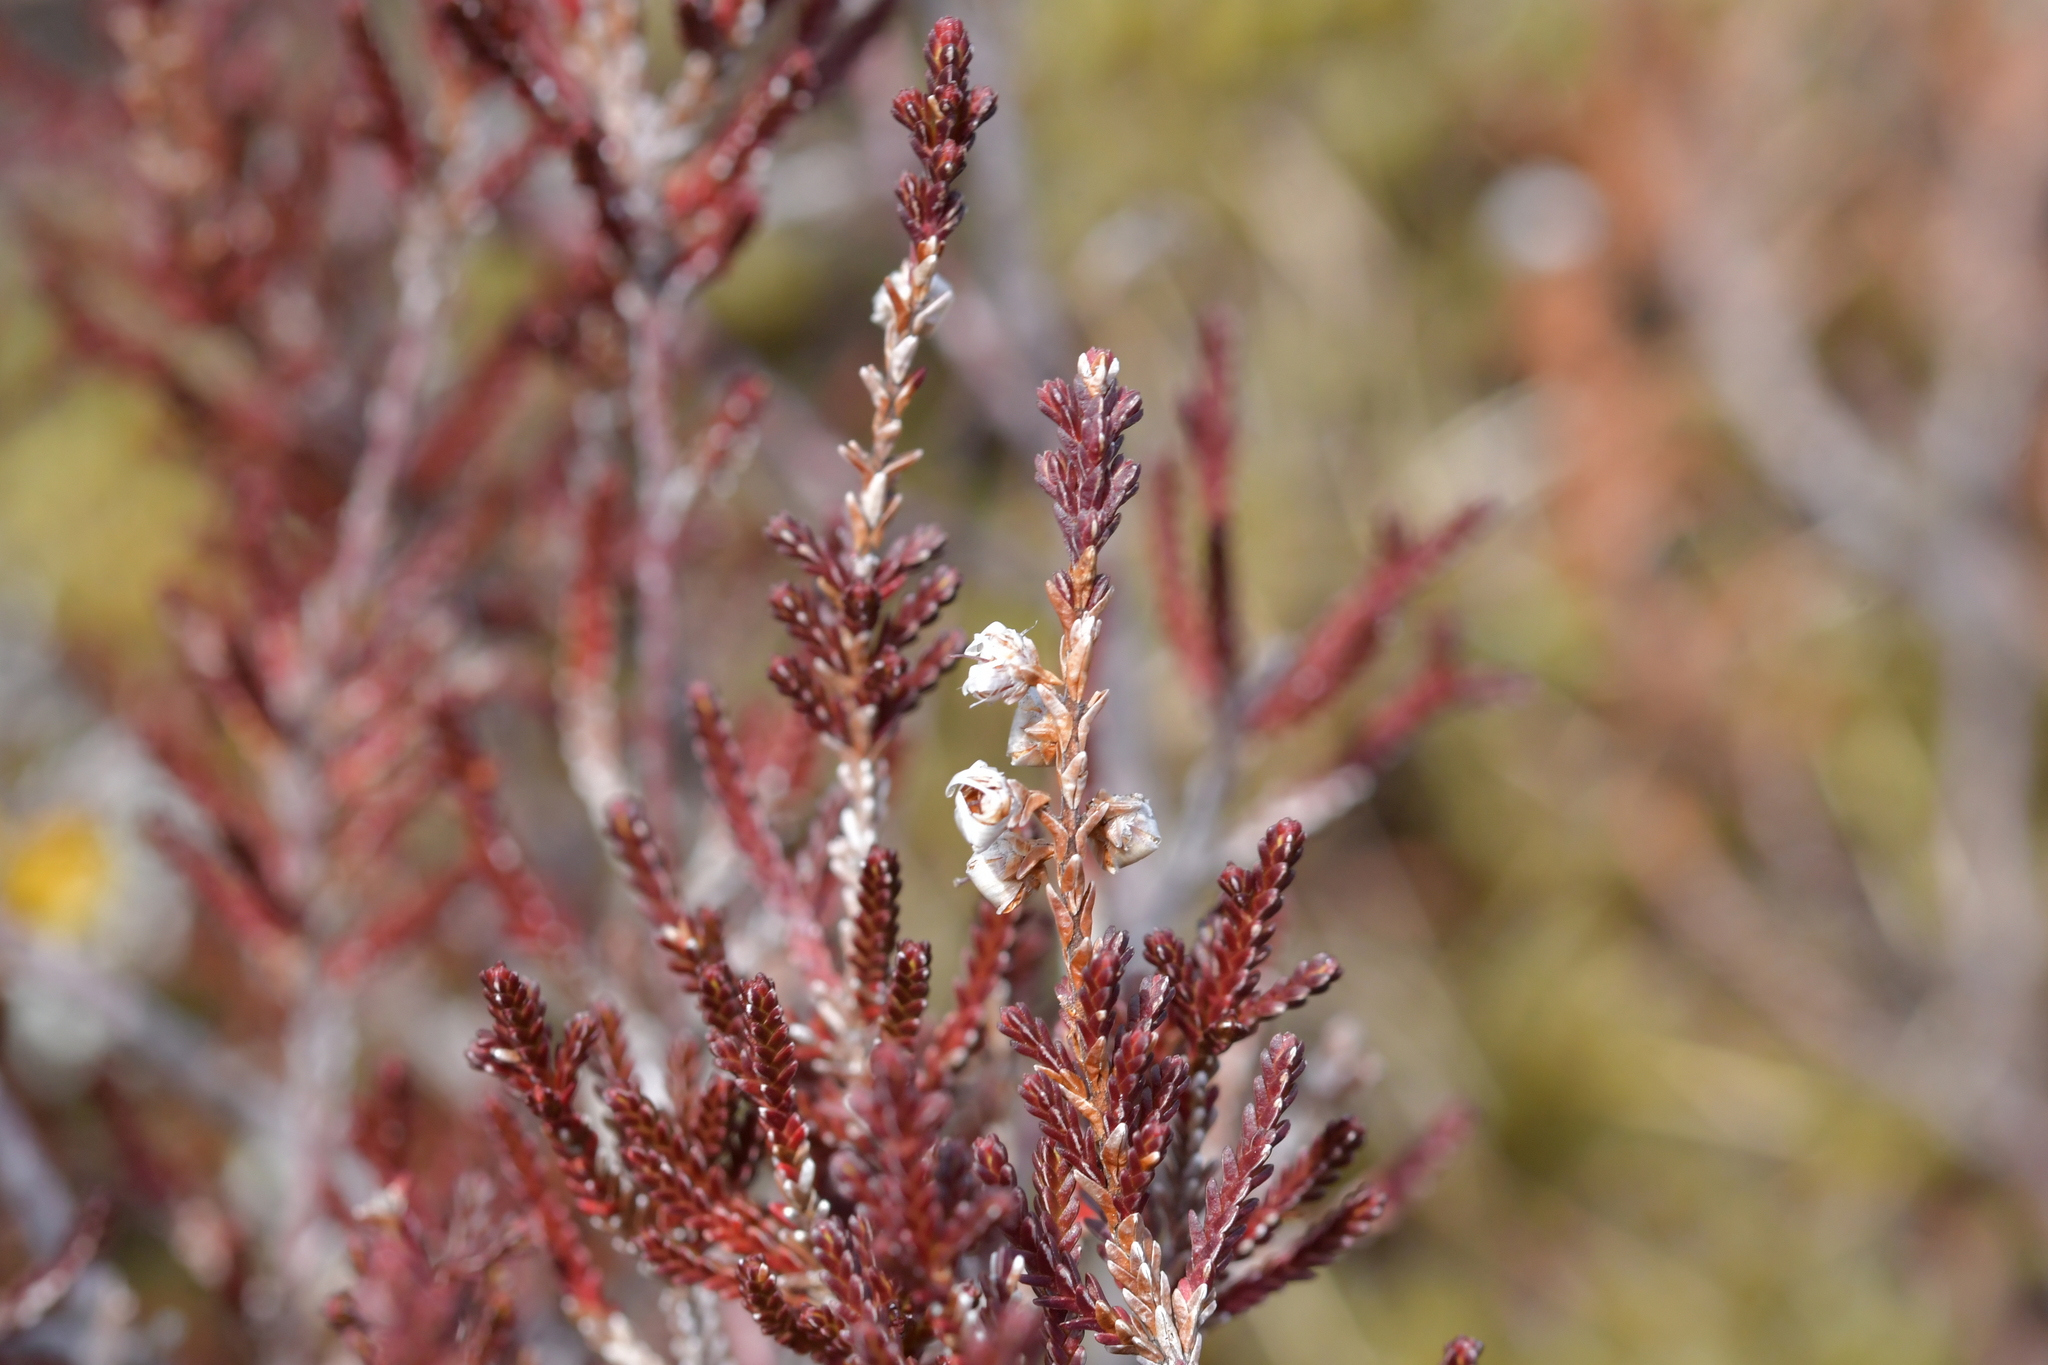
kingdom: Plantae
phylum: Tracheophyta
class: Magnoliopsida
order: Ericales
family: Ericaceae
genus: Calluna
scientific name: Calluna vulgaris
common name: Heather
